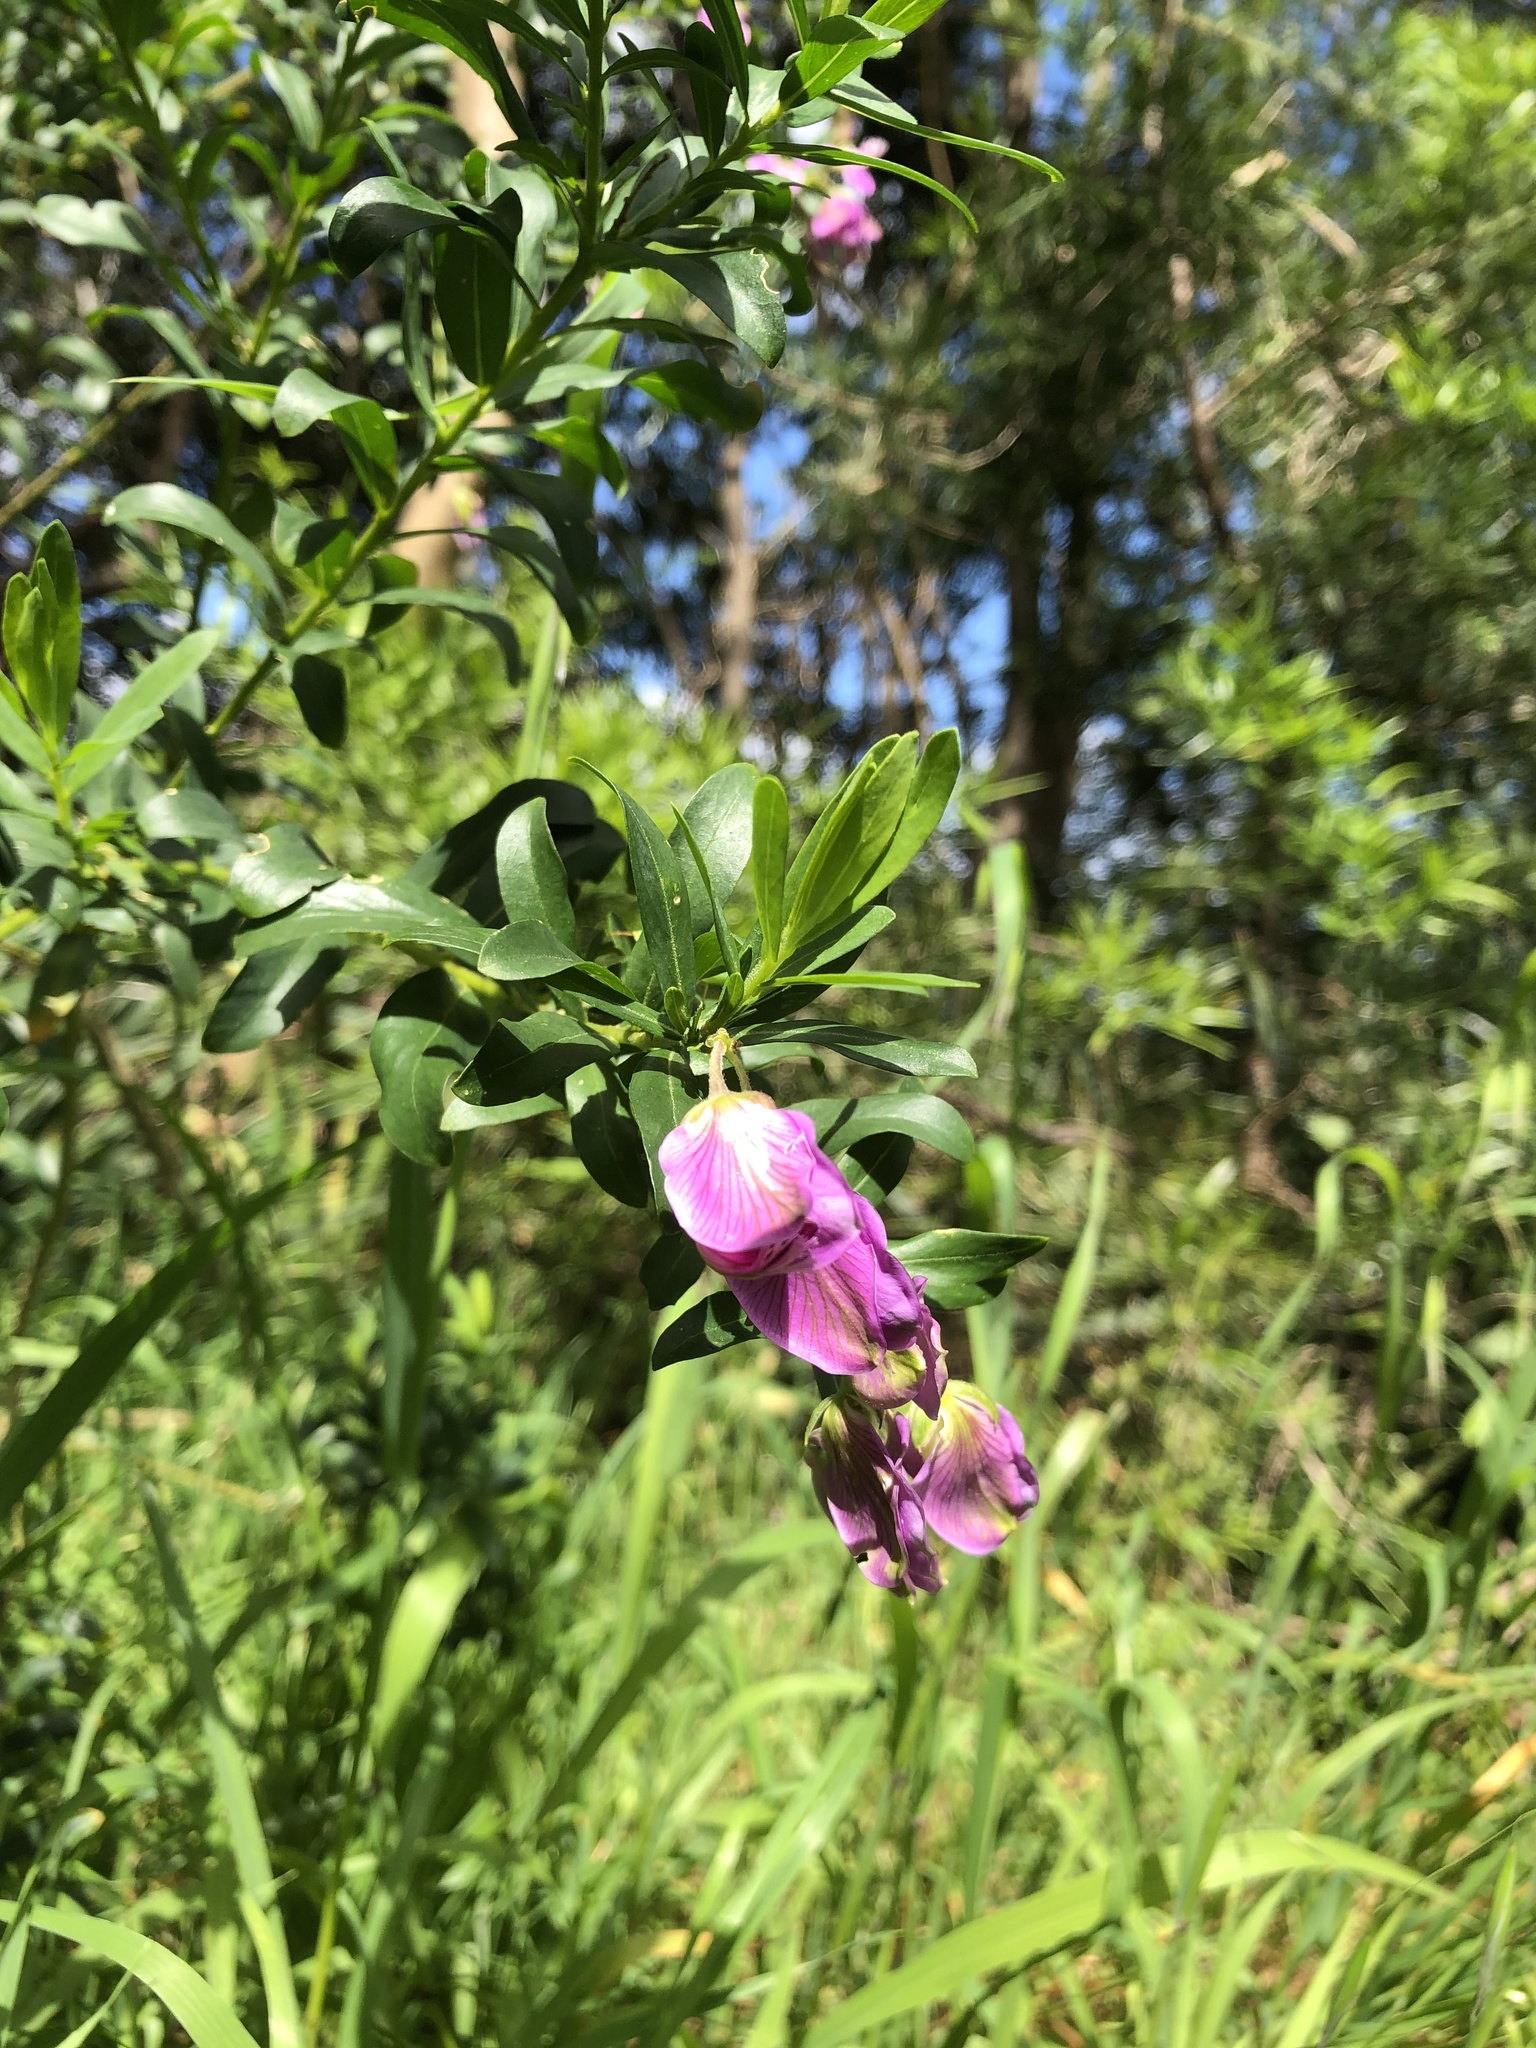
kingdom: Plantae
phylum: Tracheophyta
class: Magnoliopsida
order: Fabales
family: Polygalaceae
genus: Polygala
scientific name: Polygala myrtifolia
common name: Myrtle-leaf milkwort
